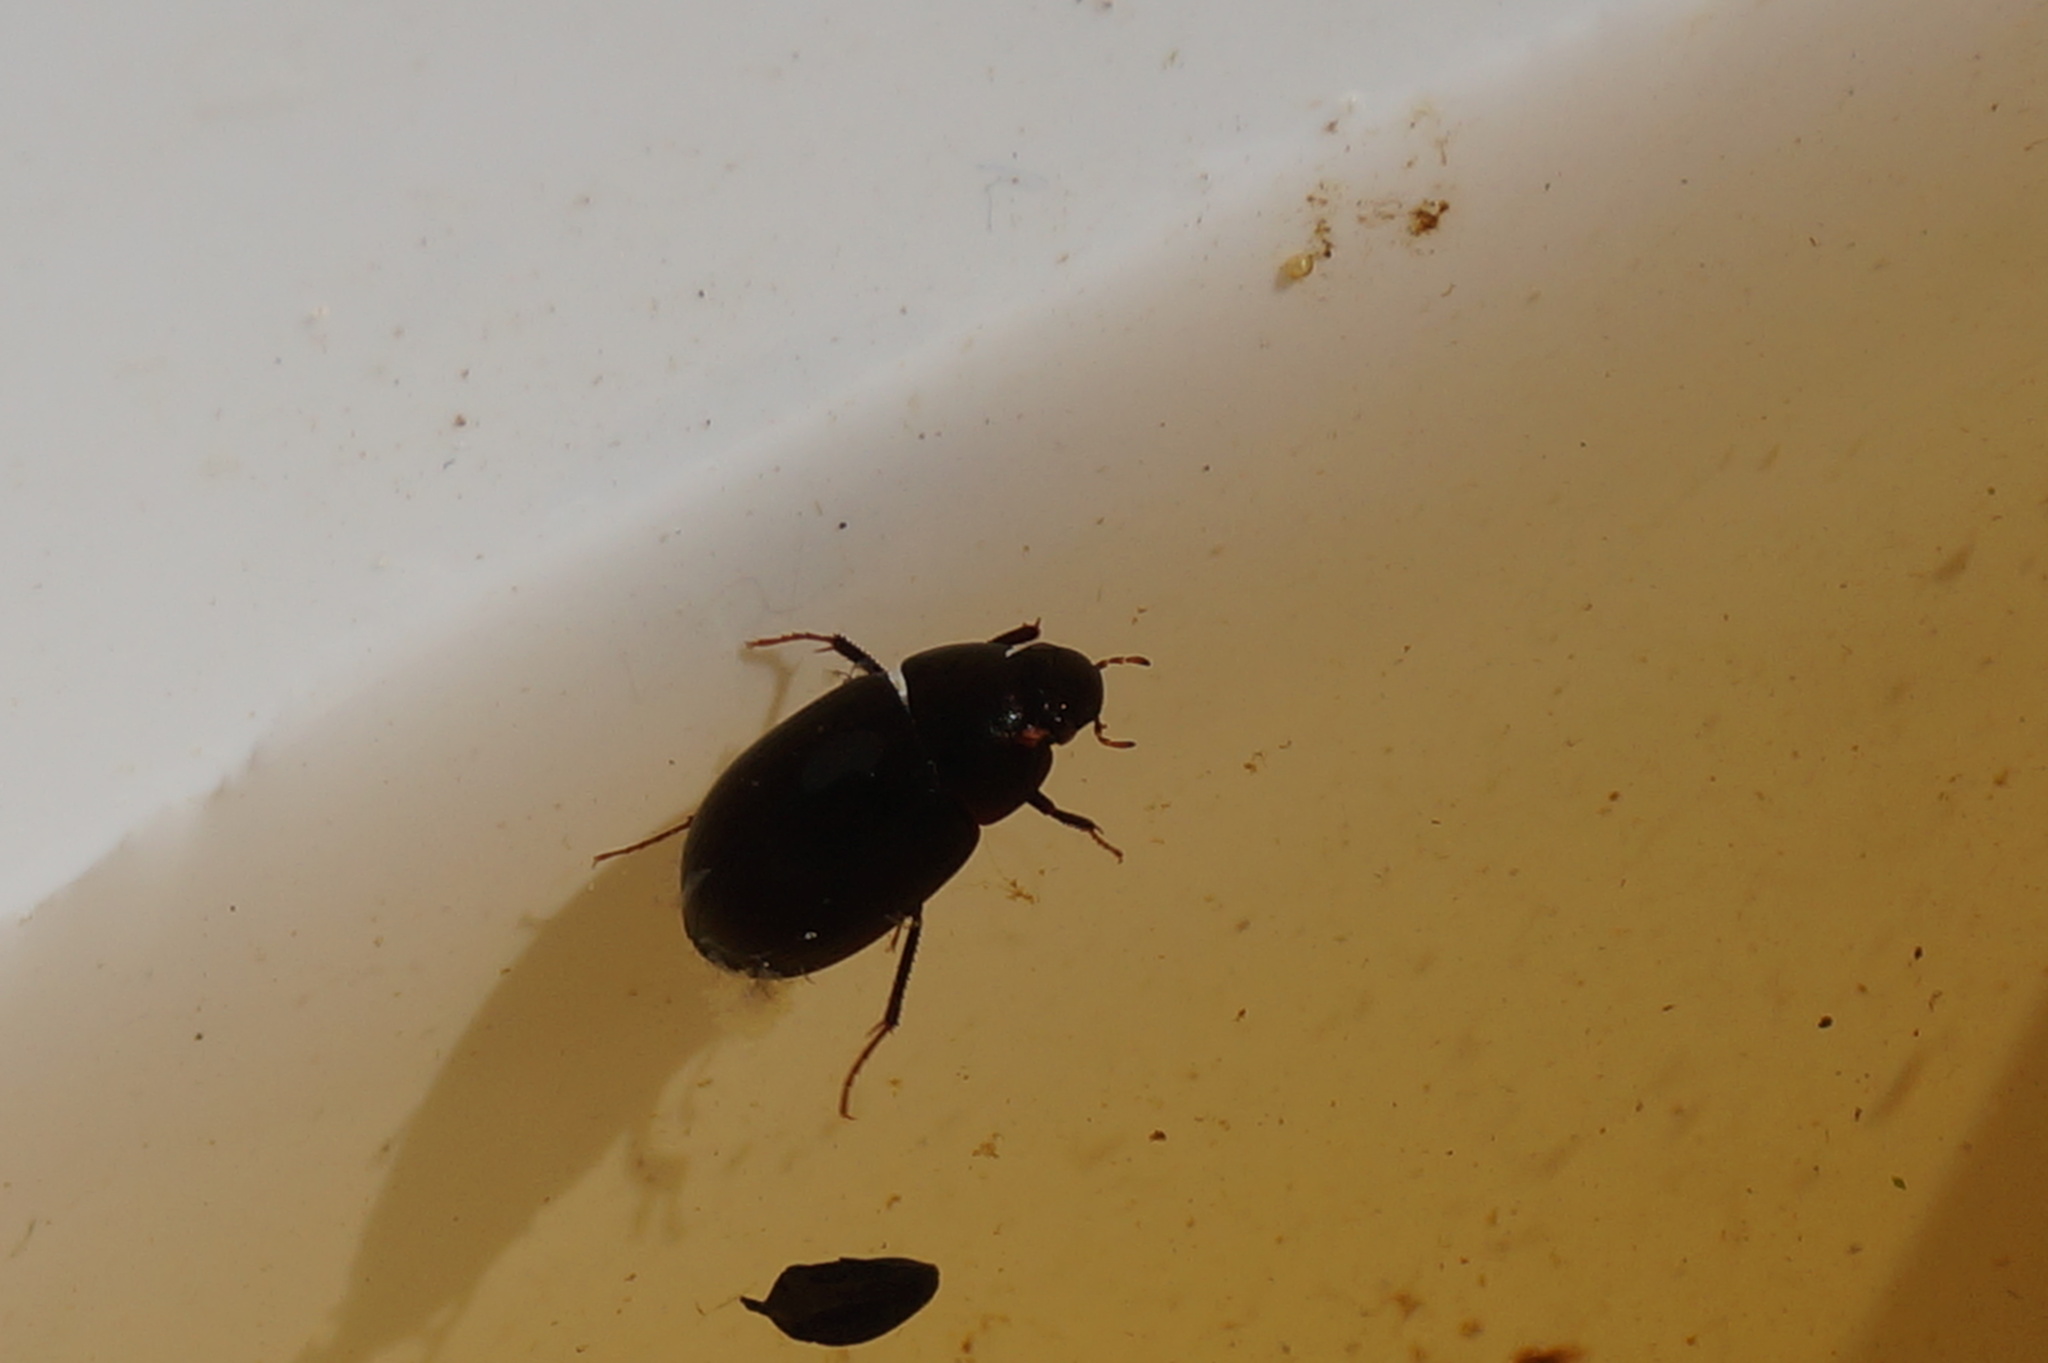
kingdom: Animalia
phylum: Arthropoda
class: Insecta
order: Coleoptera
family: Hydrophilidae
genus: Hydrochara
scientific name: Hydrochara caraboides
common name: Lesser silver water beetle
